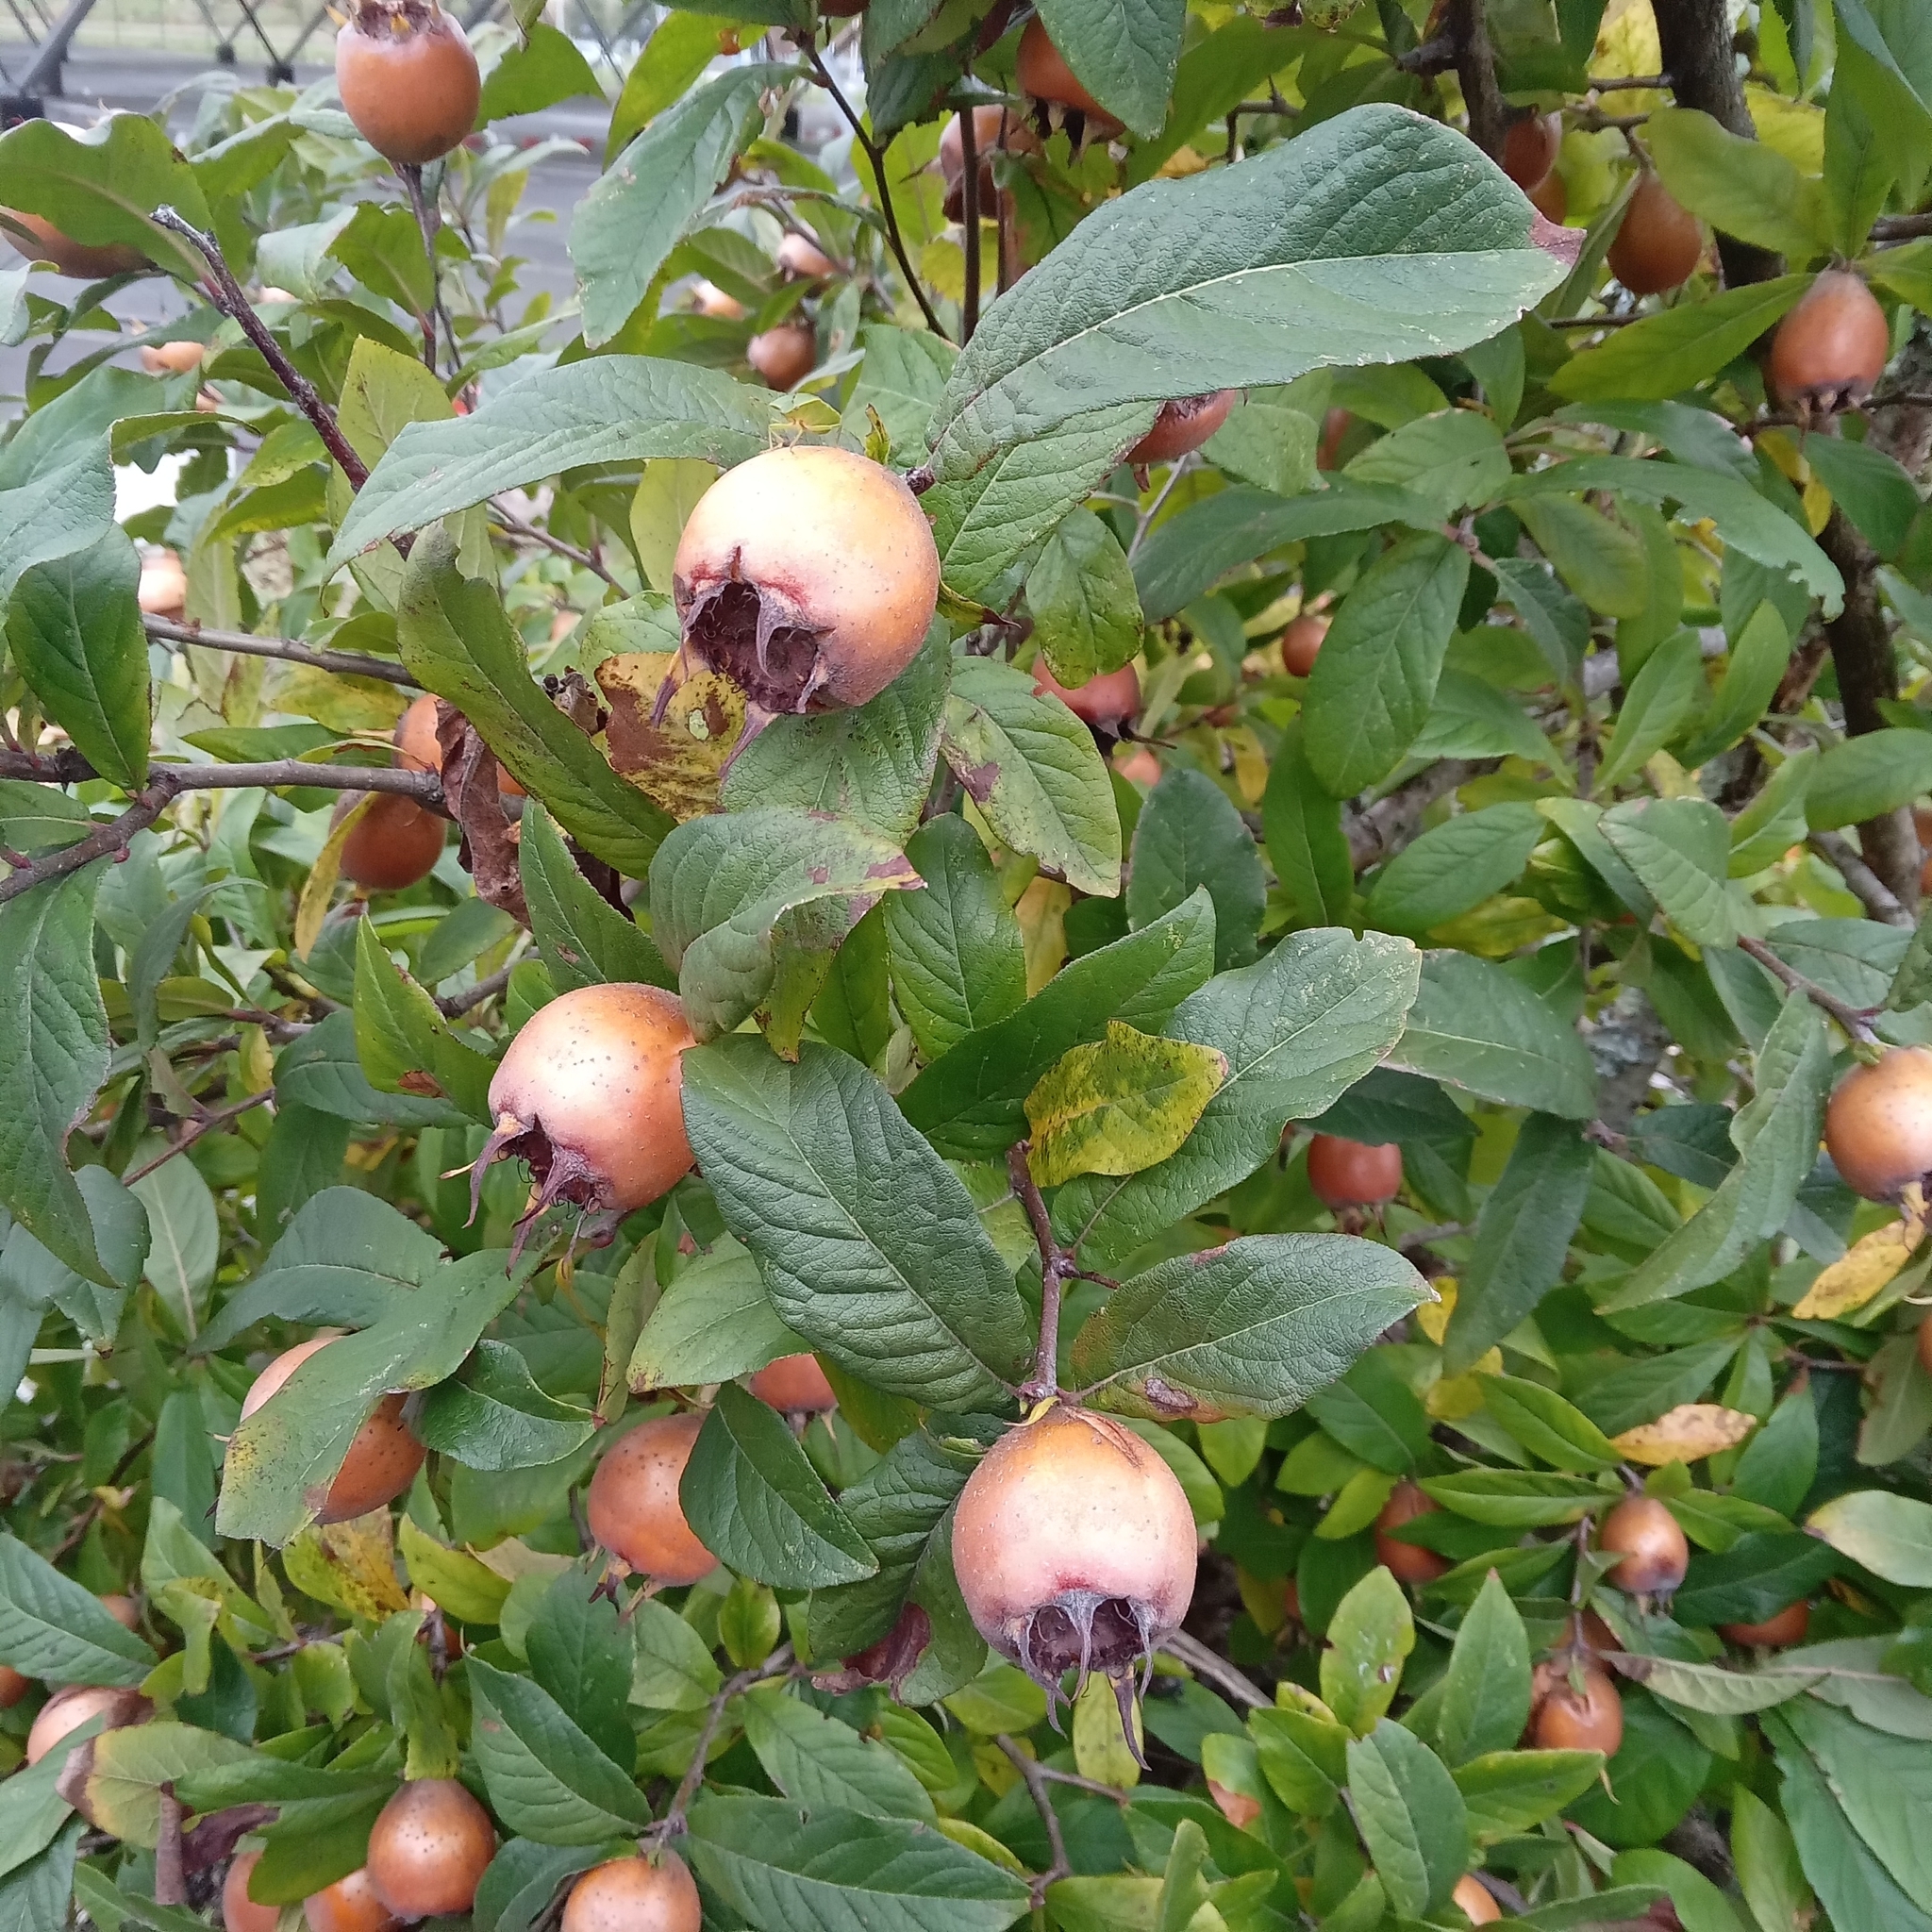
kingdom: Plantae
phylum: Tracheophyta
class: Magnoliopsida
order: Rosales
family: Rosaceae
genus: Mespilus
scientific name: Mespilus germanica
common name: Medlar
